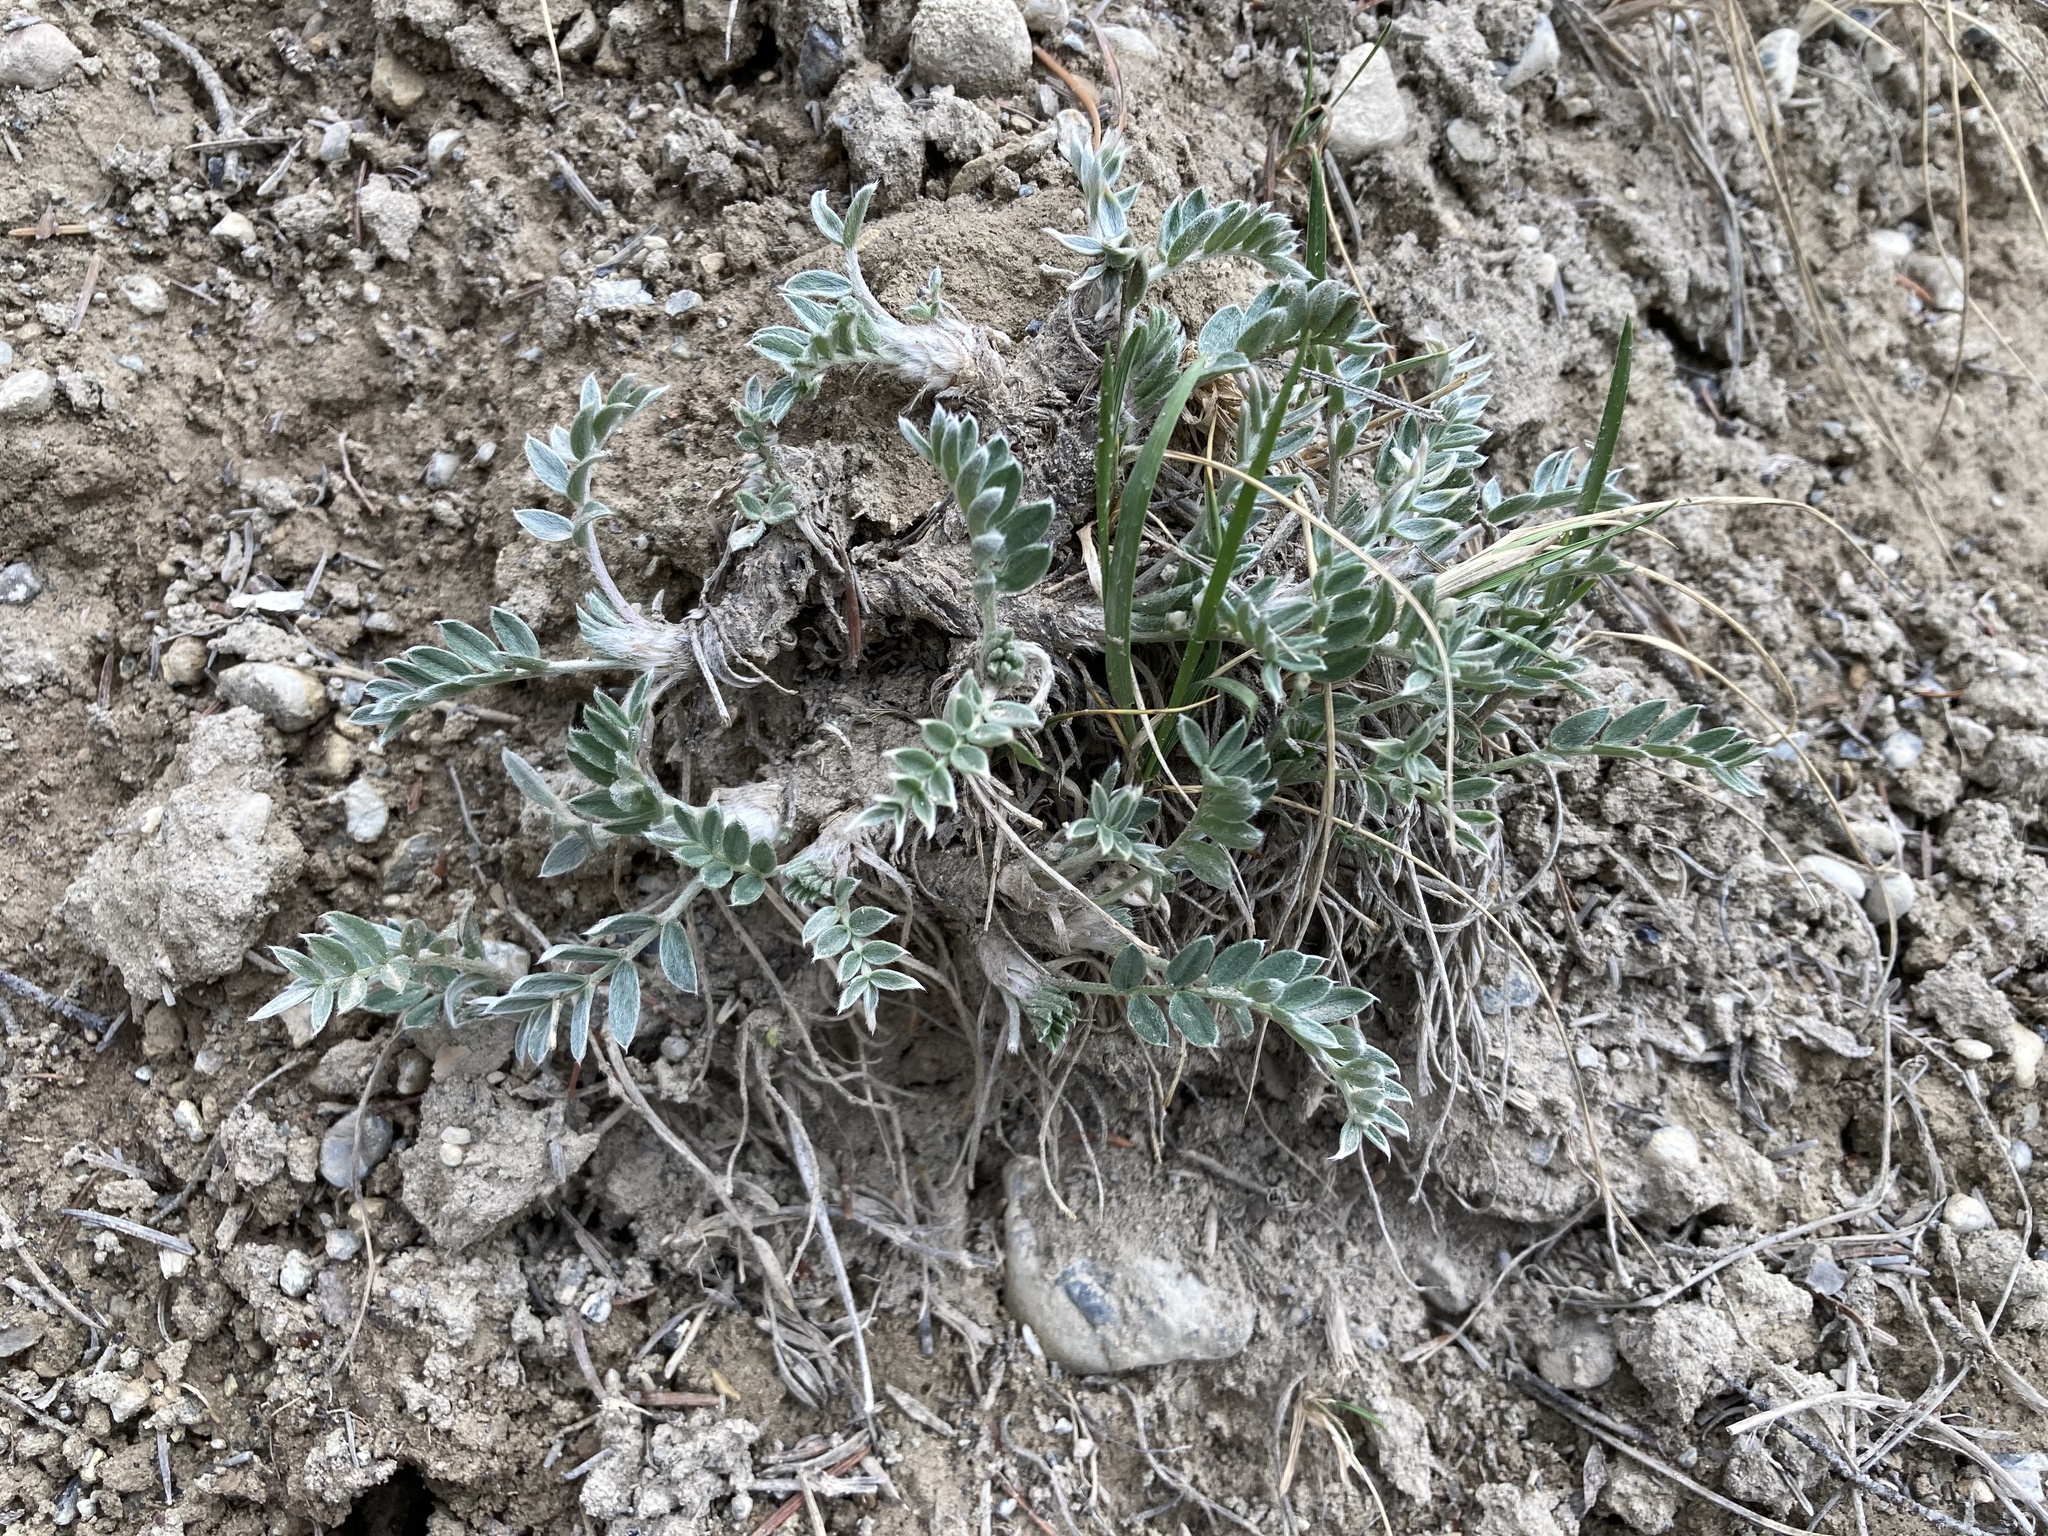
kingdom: Plantae
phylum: Tracheophyta
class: Magnoliopsida
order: Fabales
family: Fabaceae
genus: Oxytropis
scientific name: Oxytropis sericea
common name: Silky locoweed
